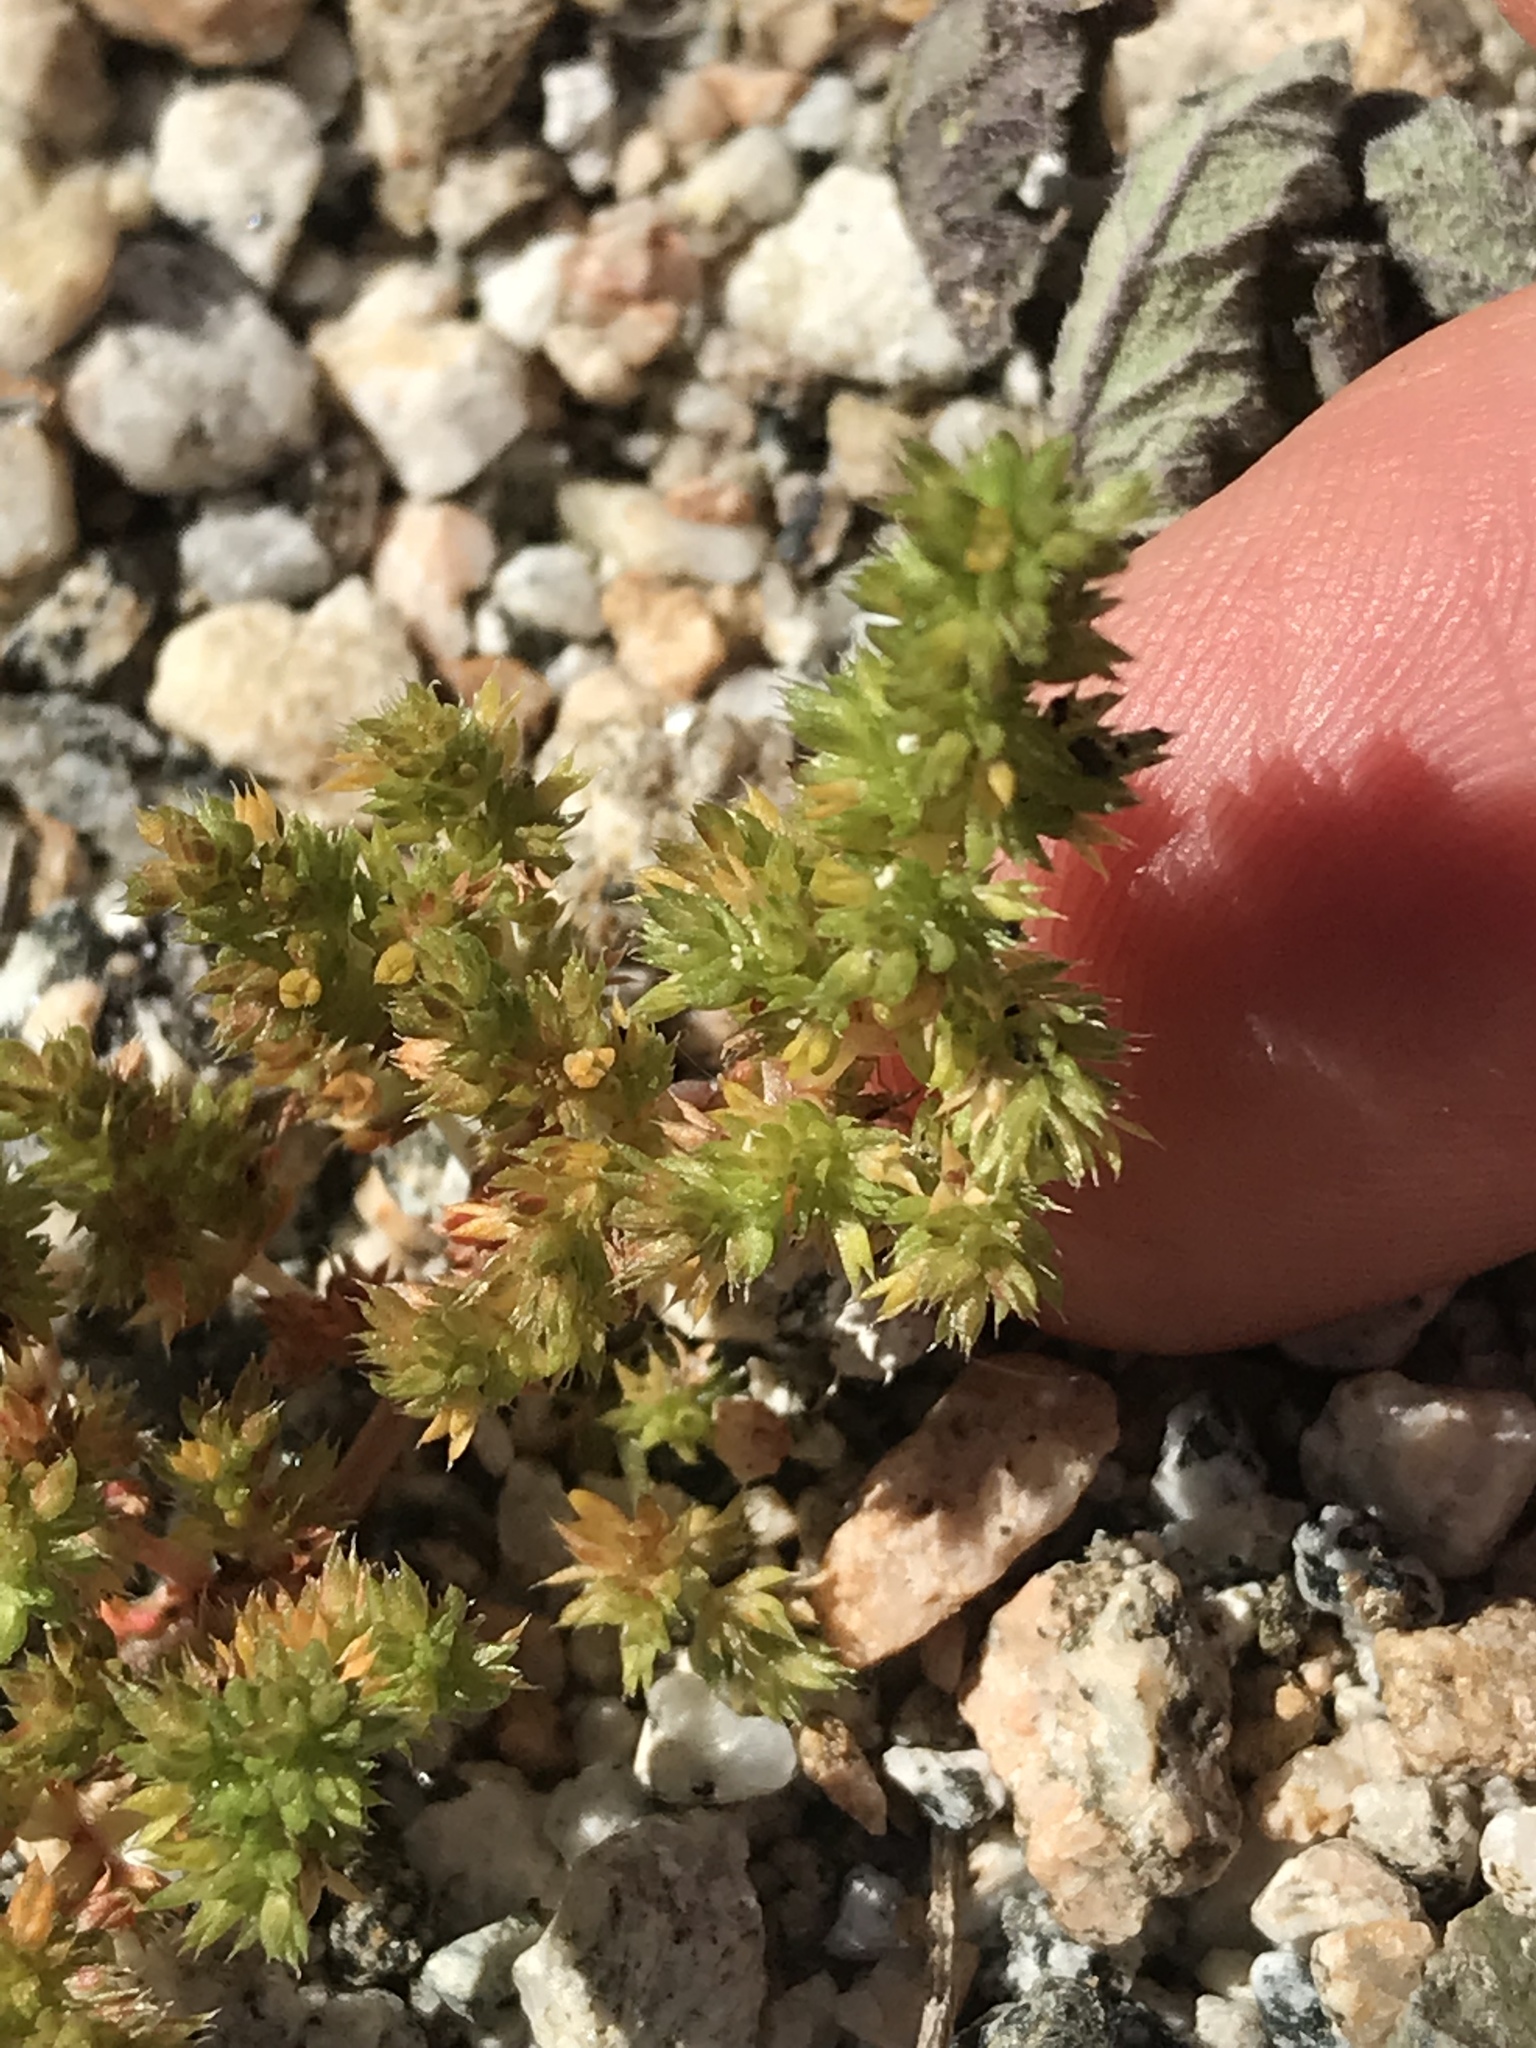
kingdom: Plantae
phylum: Tracheophyta
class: Magnoliopsida
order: Saxifragales
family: Crassulaceae
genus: Crassula
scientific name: Crassula tillaea
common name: Mossy stonecrop
